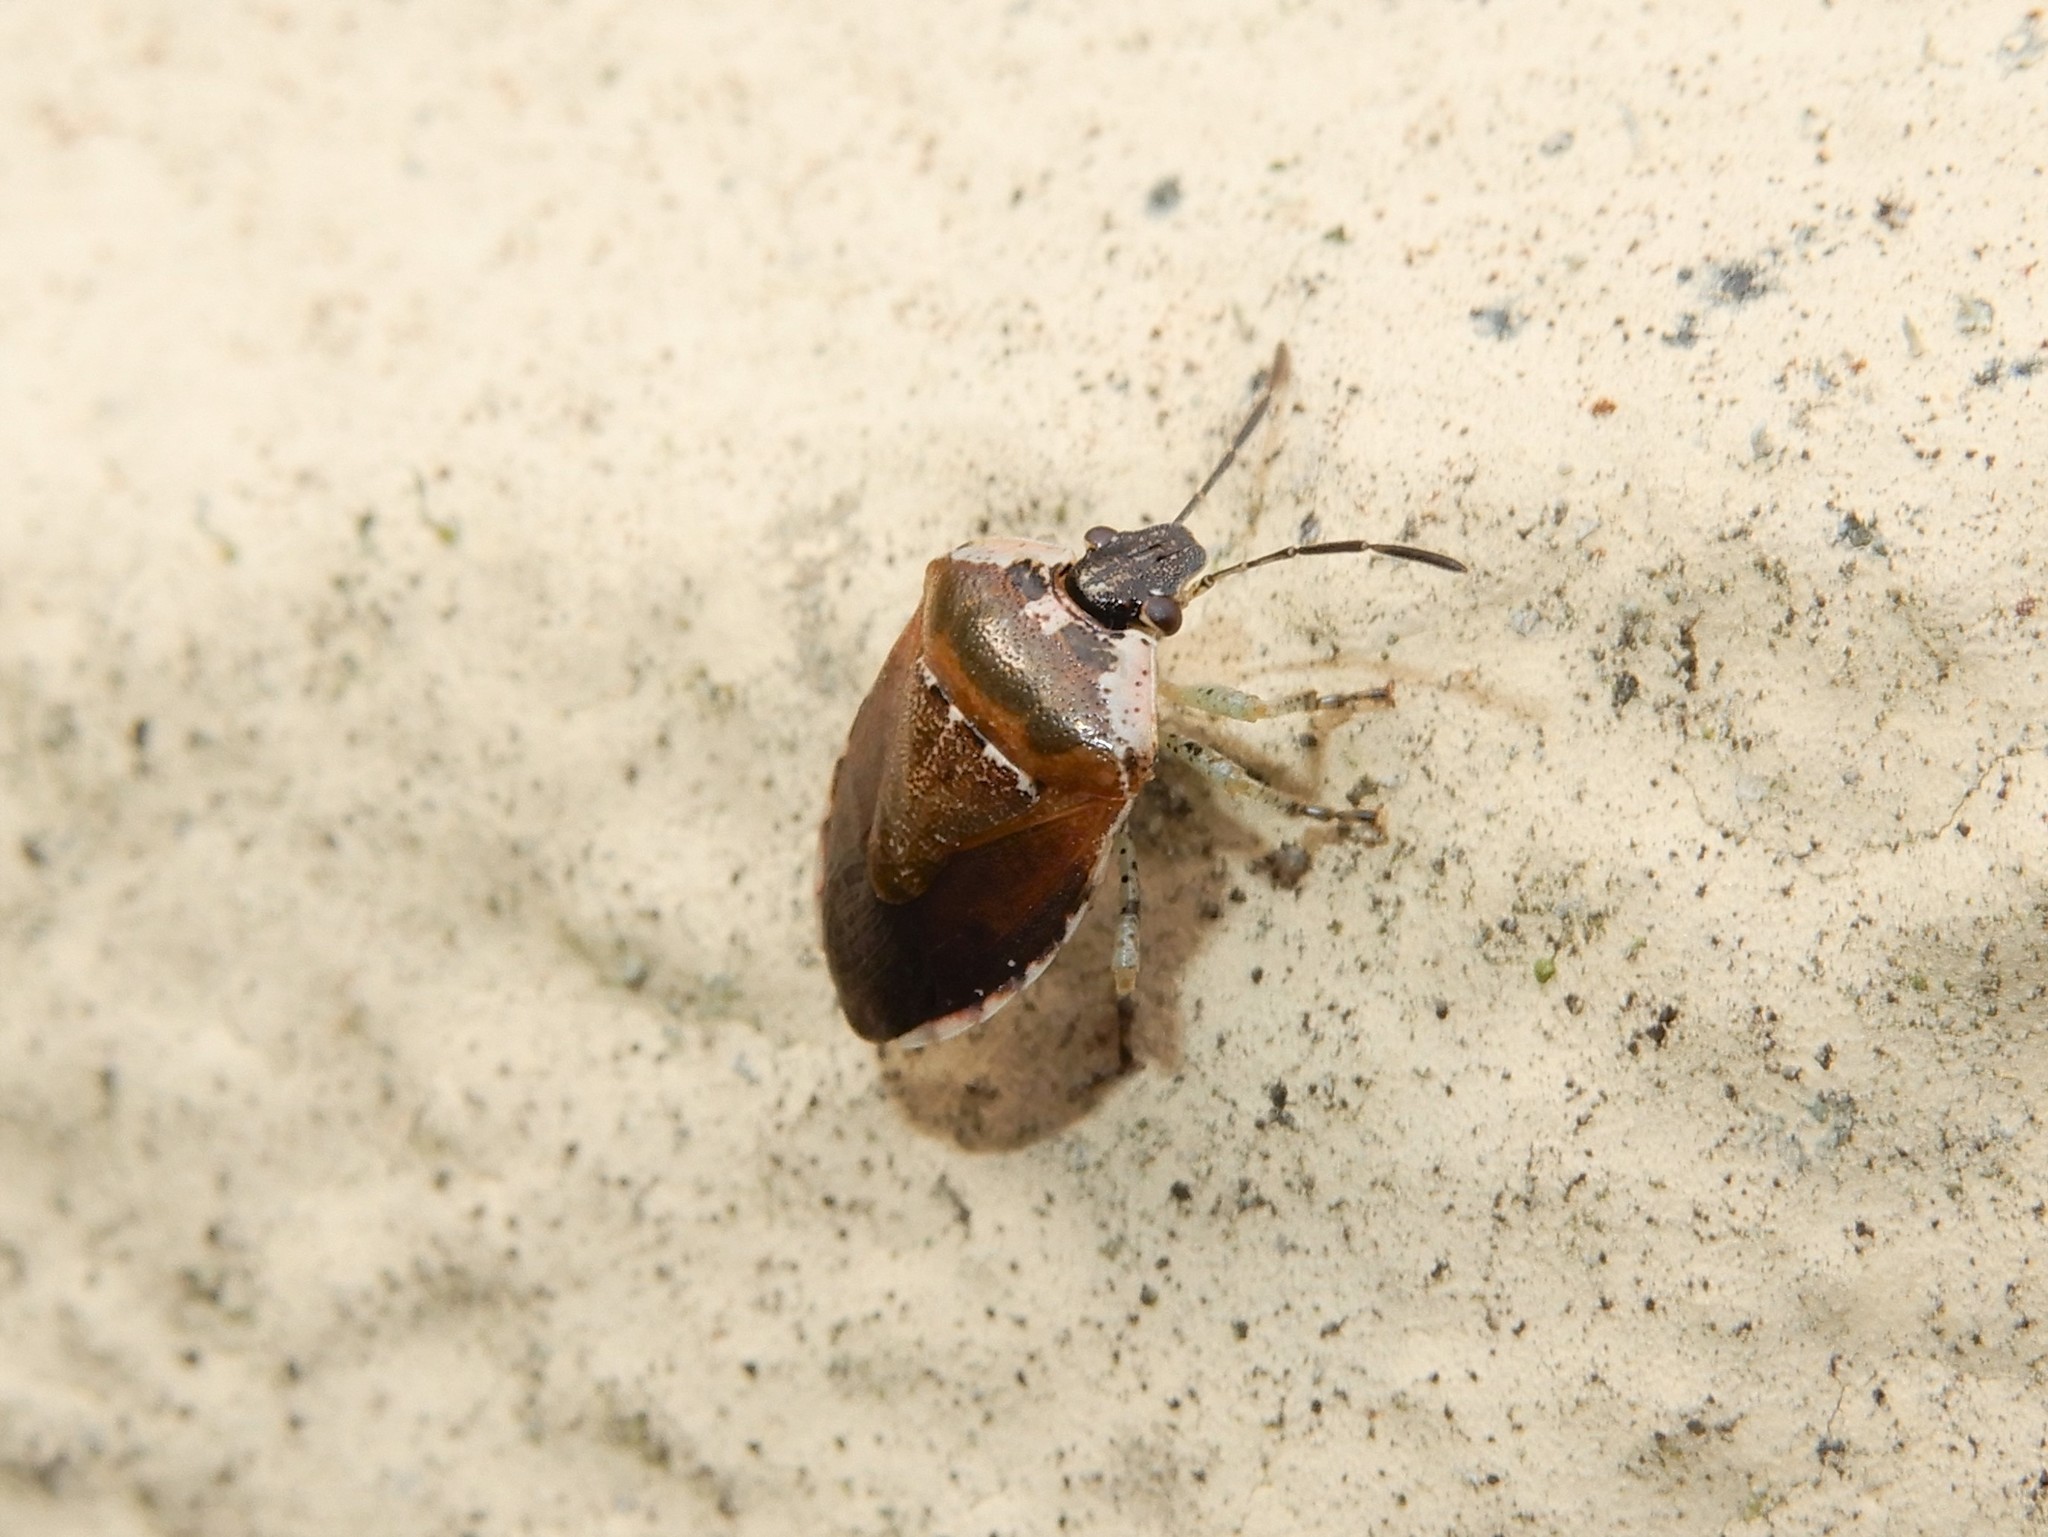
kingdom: Animalia
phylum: Arthropoda
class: Insecta
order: Hemiptera
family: Pentatomidae
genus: Monteithiella
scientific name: Monteithiella
